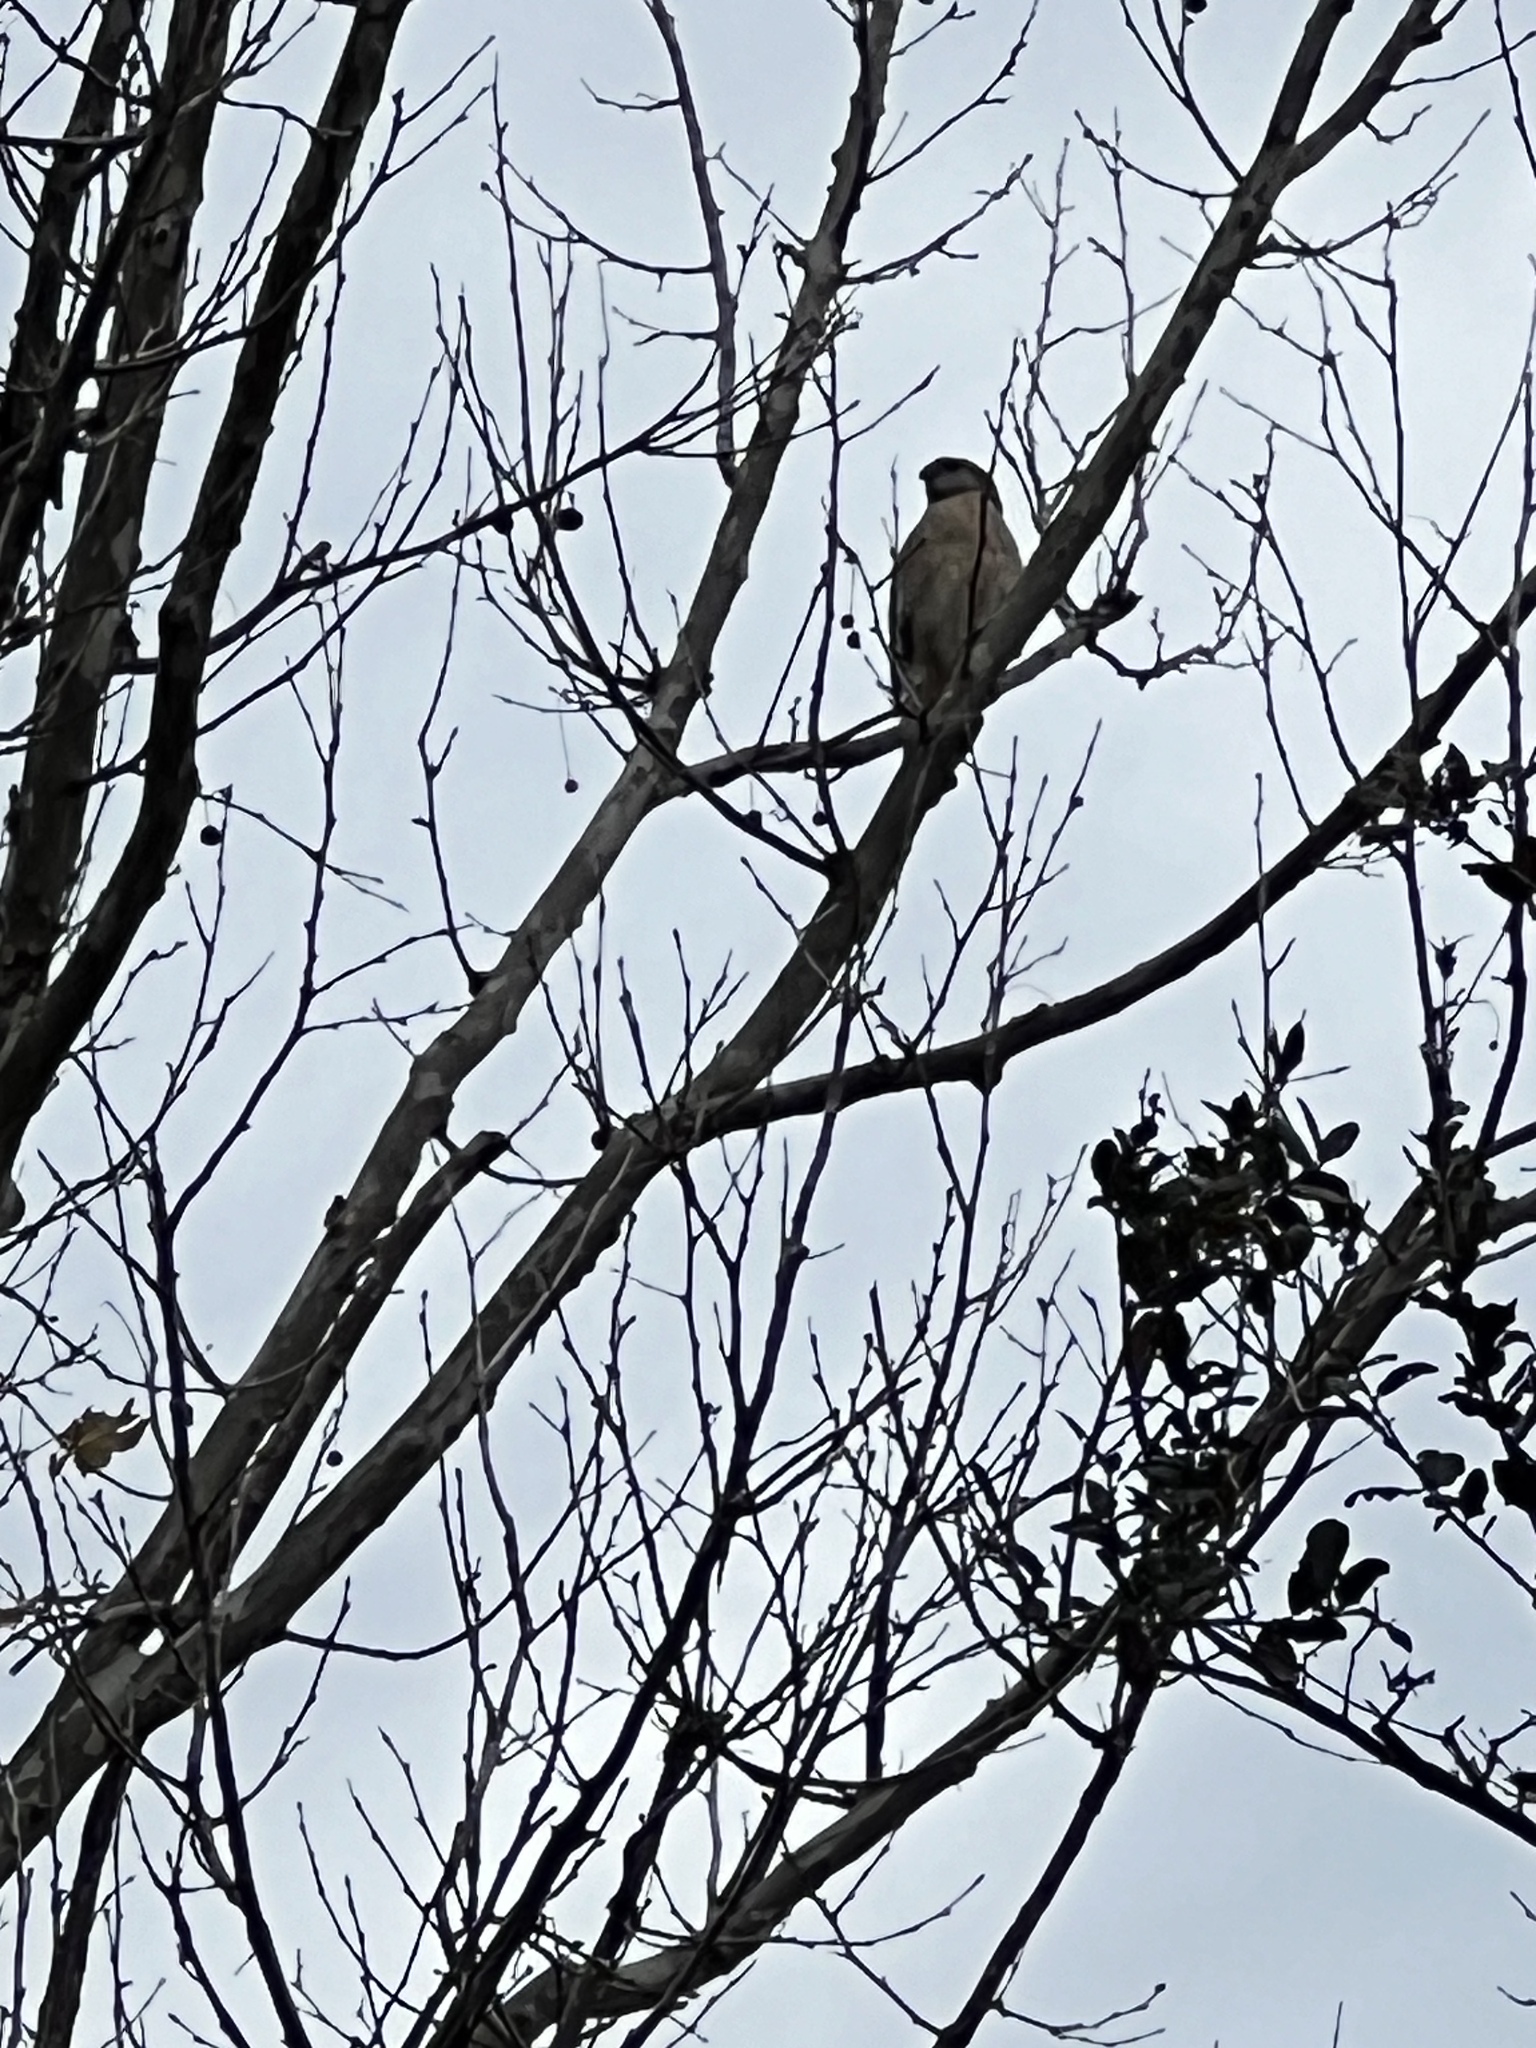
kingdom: Animalia
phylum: Chordata
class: Aves
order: Accipitriformes
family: Accipitridae
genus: Buteo
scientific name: Buteo lineatus
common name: Red-shouldered hawk
